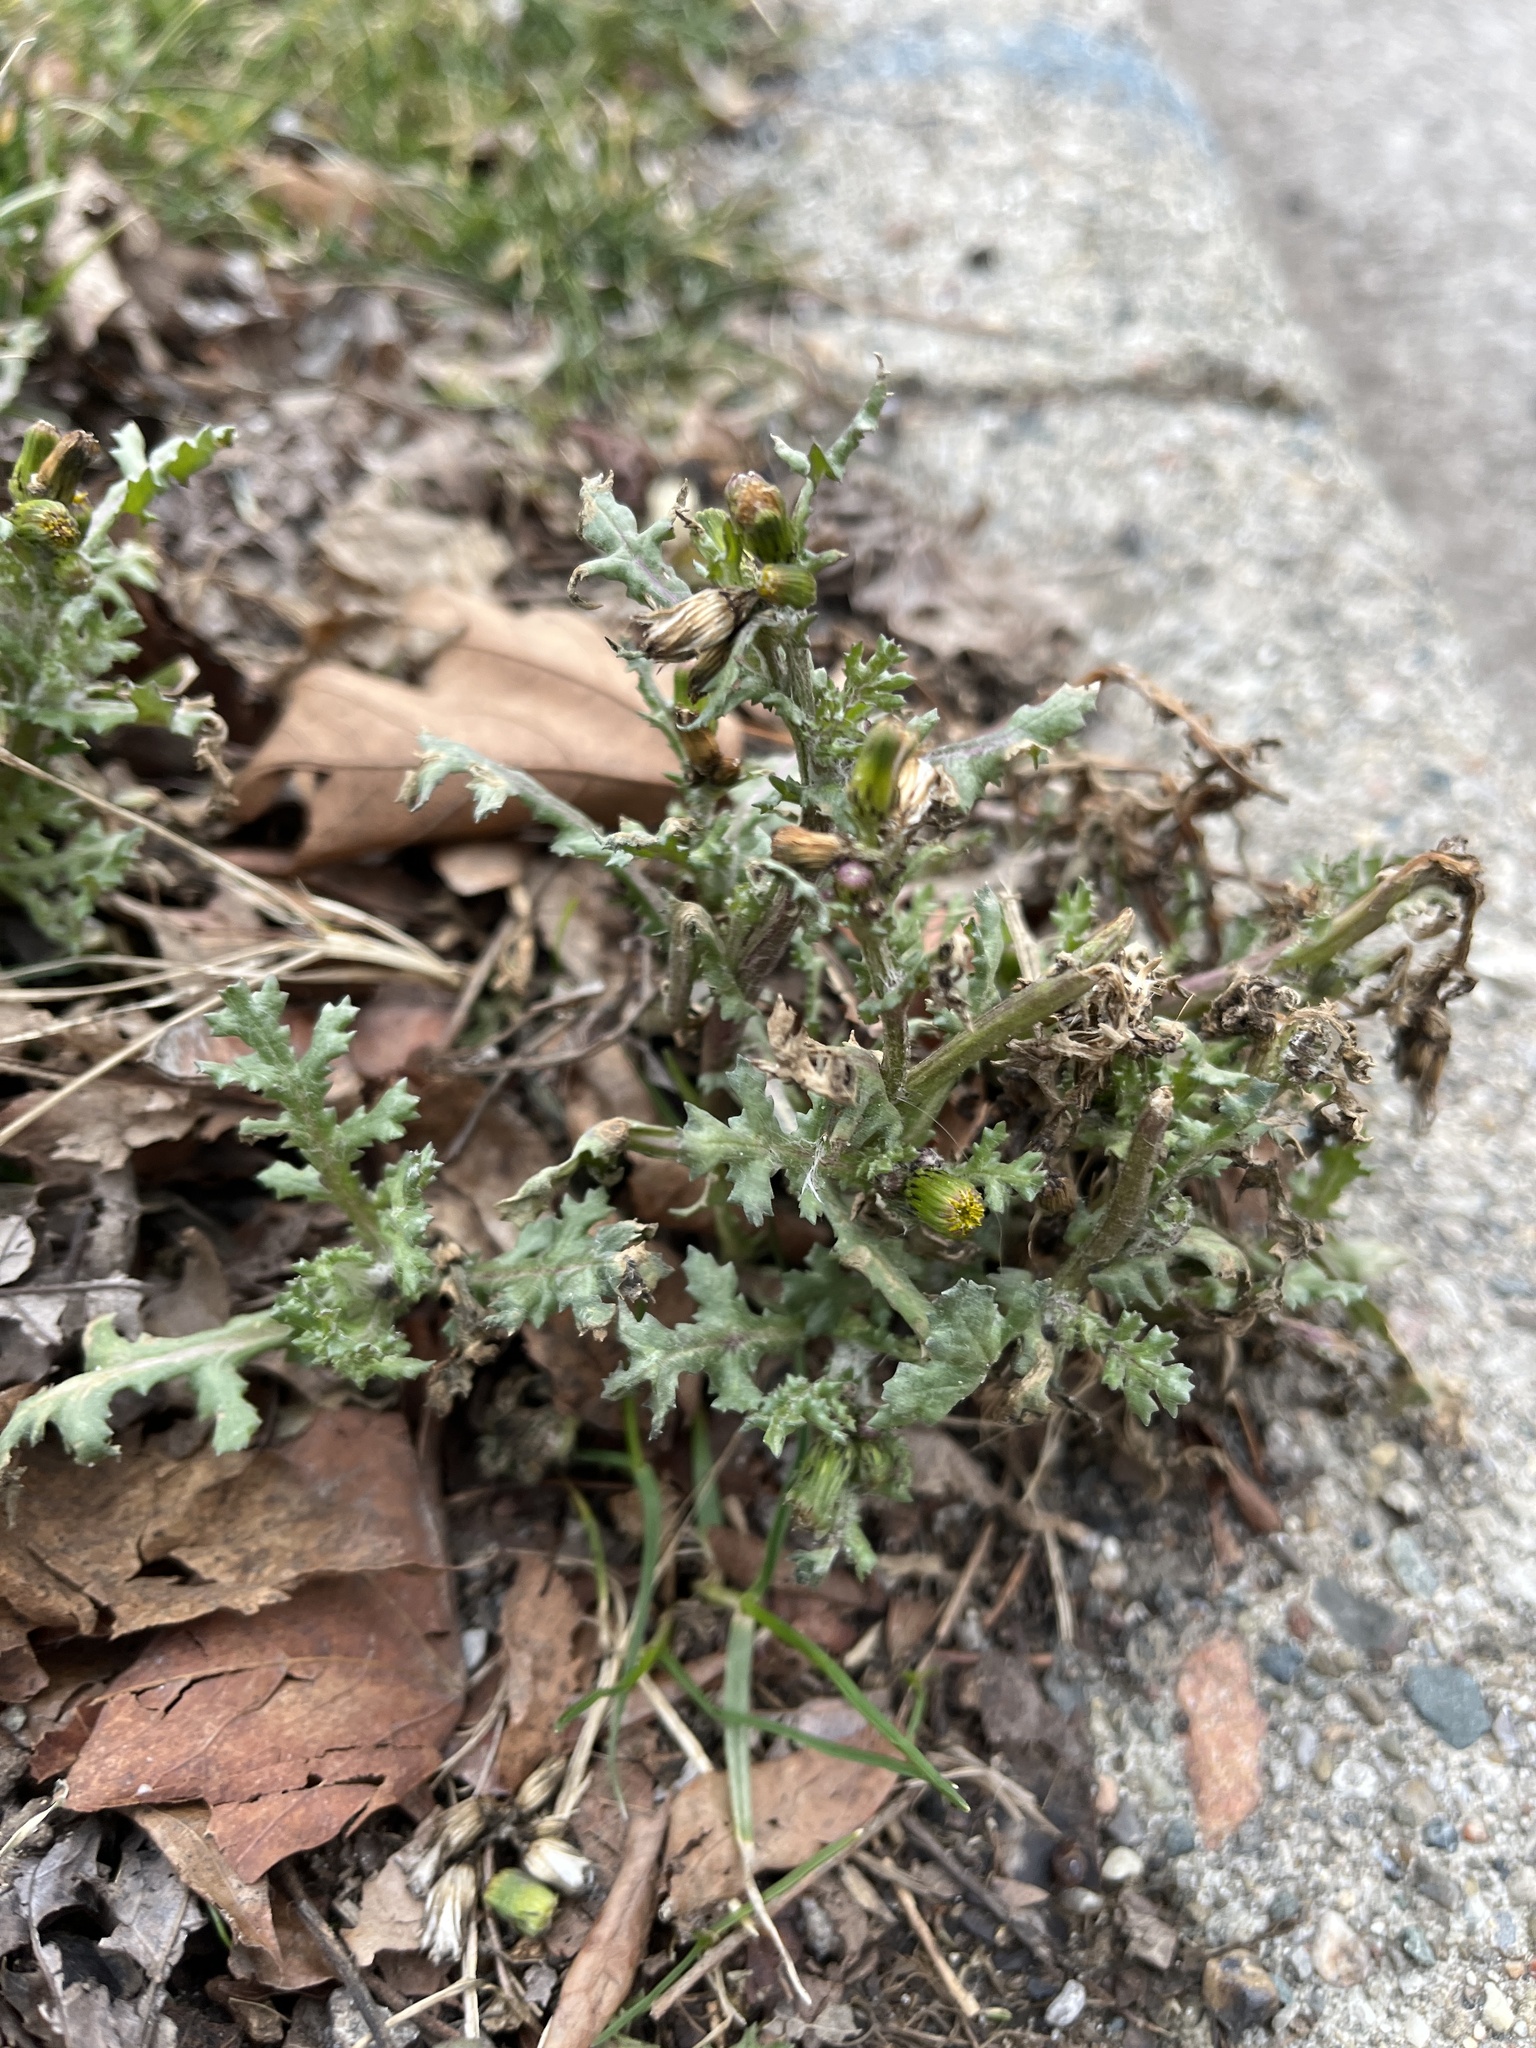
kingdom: Plantae
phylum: Tracheophyta
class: Magnoliopsida
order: Asterales
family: Asteraceae
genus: Senecio
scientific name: Senecio vulgaris
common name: Old-man-in-the-spring
